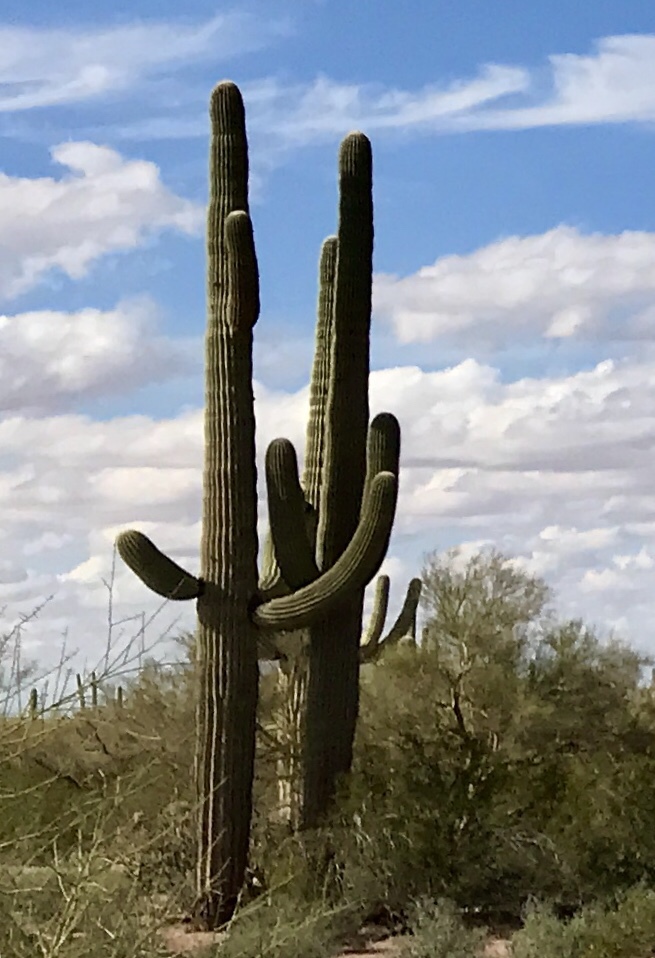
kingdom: Plantae
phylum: Tracheophyta
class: Magnoliopsida
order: Caryophyllales
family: Cactaceae
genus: Carnegiea
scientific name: Carnegiea gigantea
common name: Saguaro
